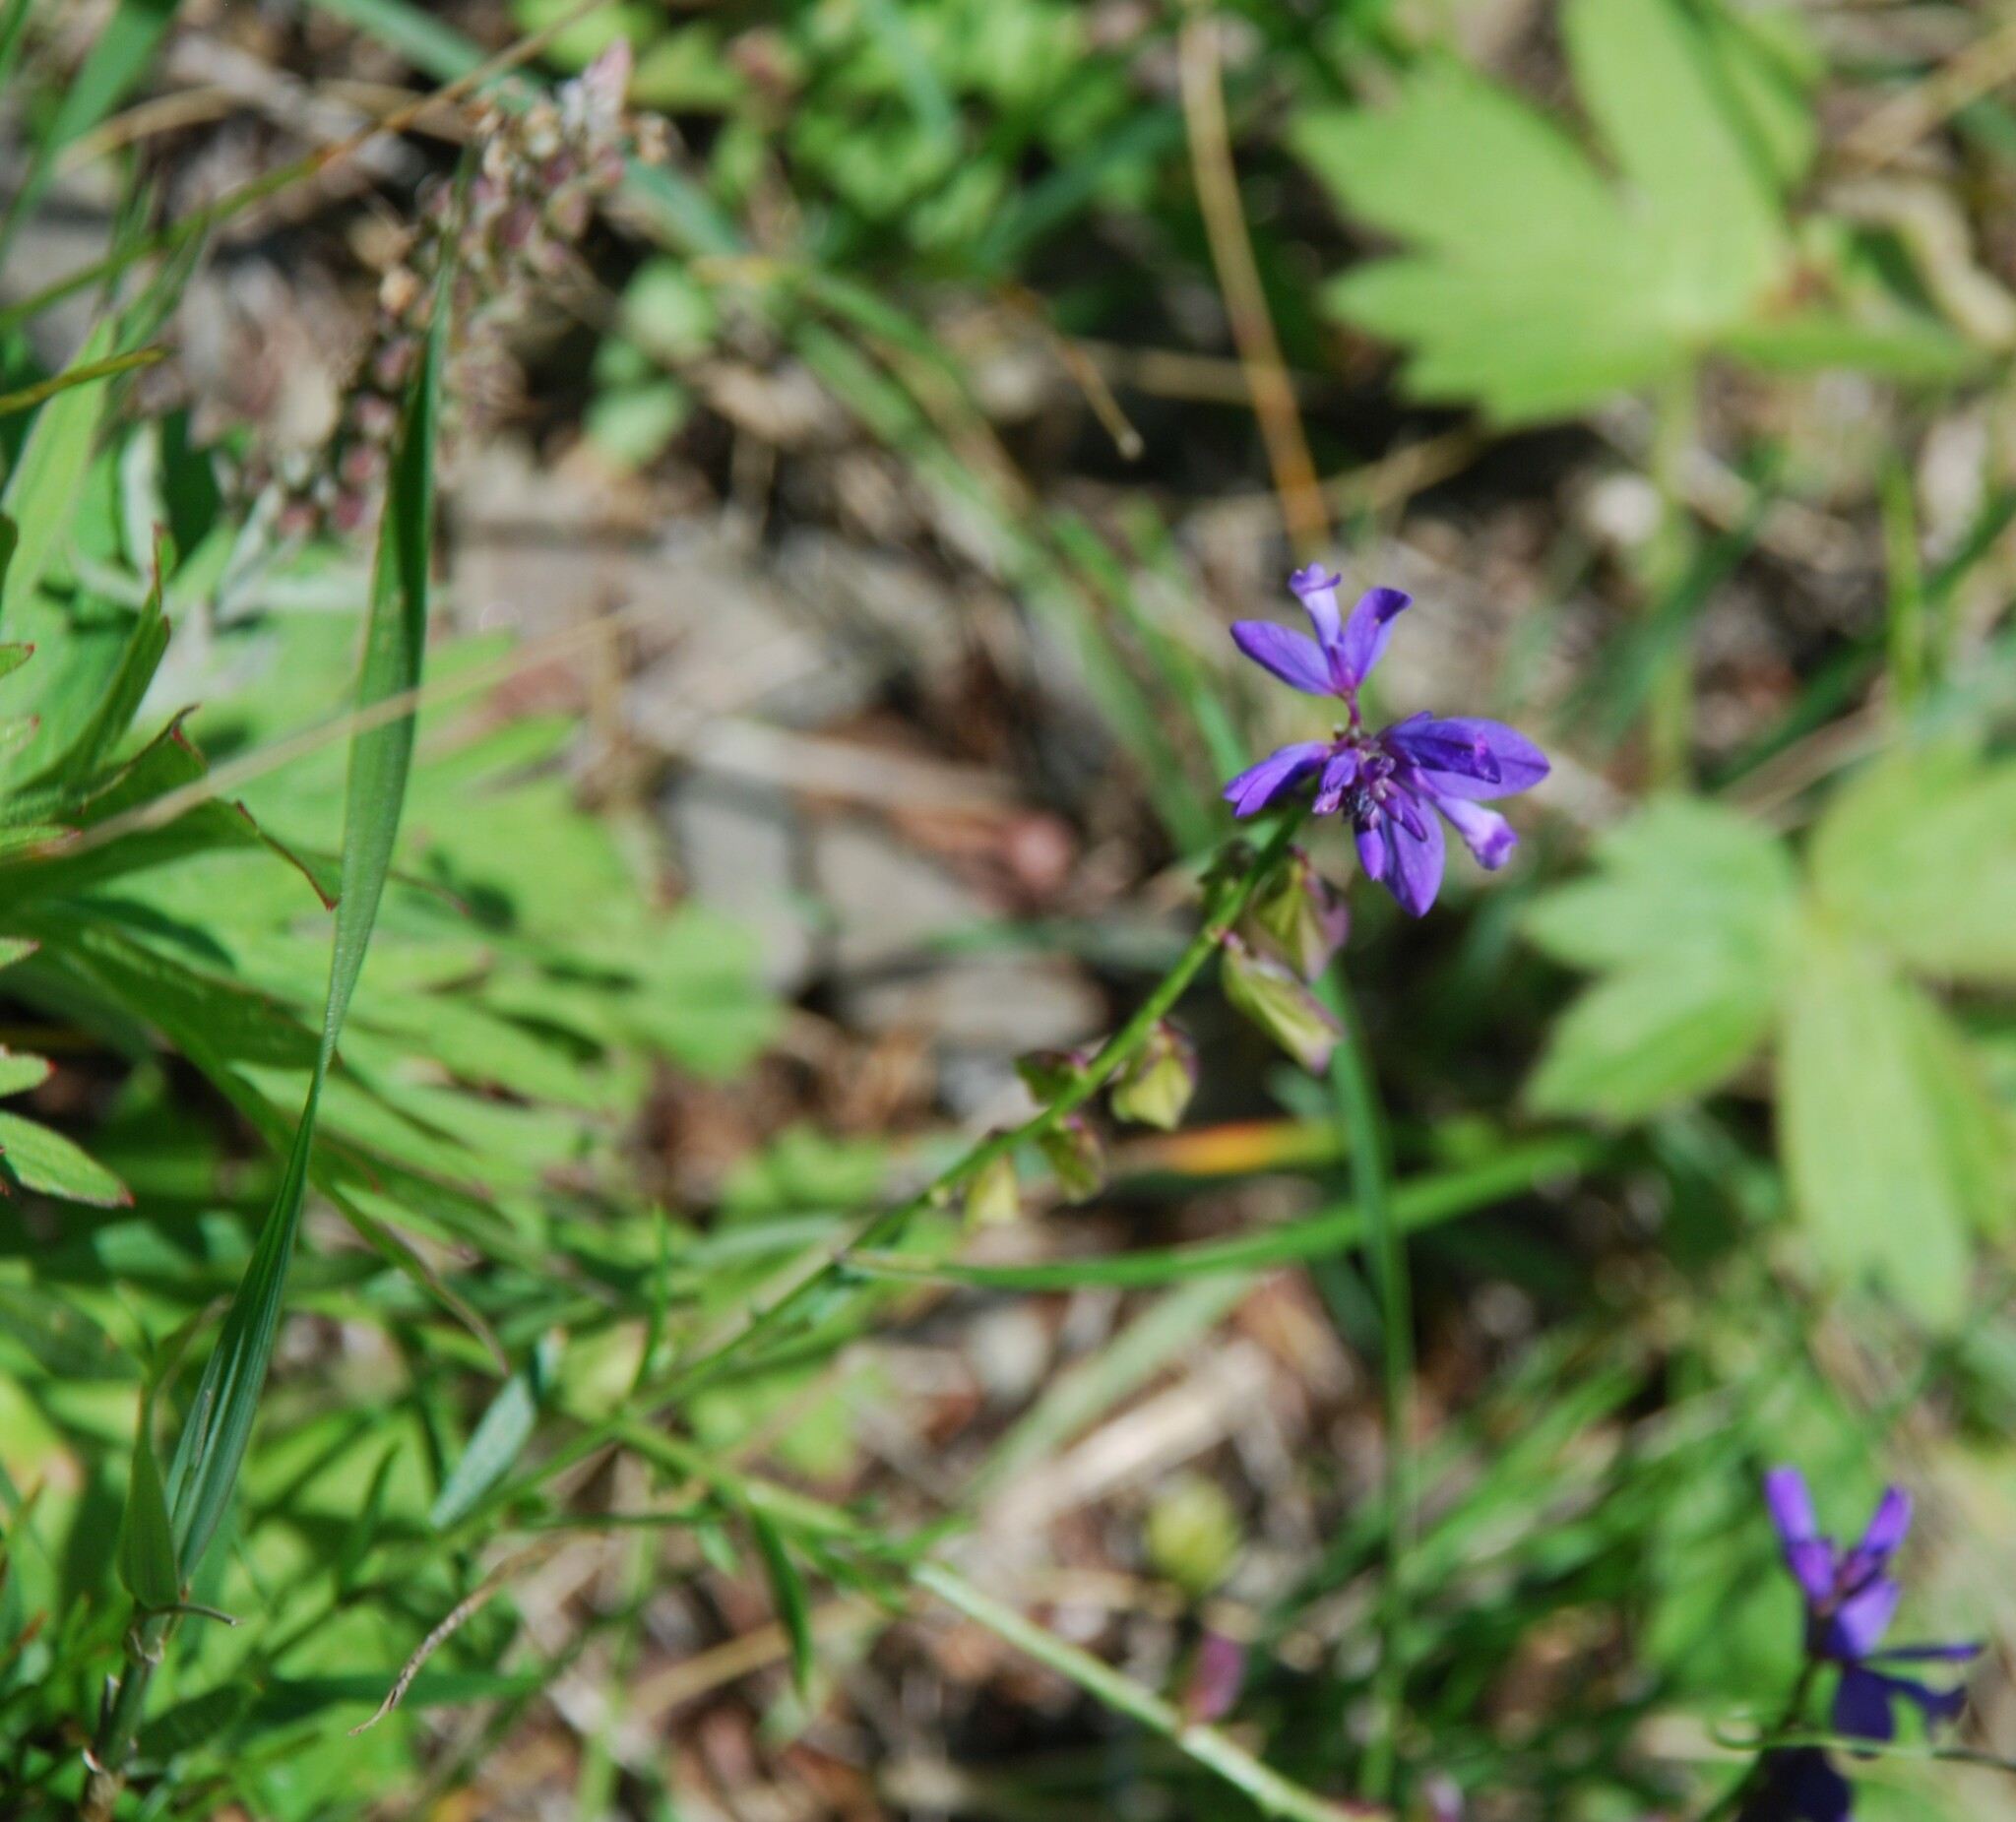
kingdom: Plantae
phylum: Tracheophyta
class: Magnoliopsida
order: Fabales
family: Polygalaceae
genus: Polygala
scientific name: Polygala comosa
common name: Tufted milkwort
